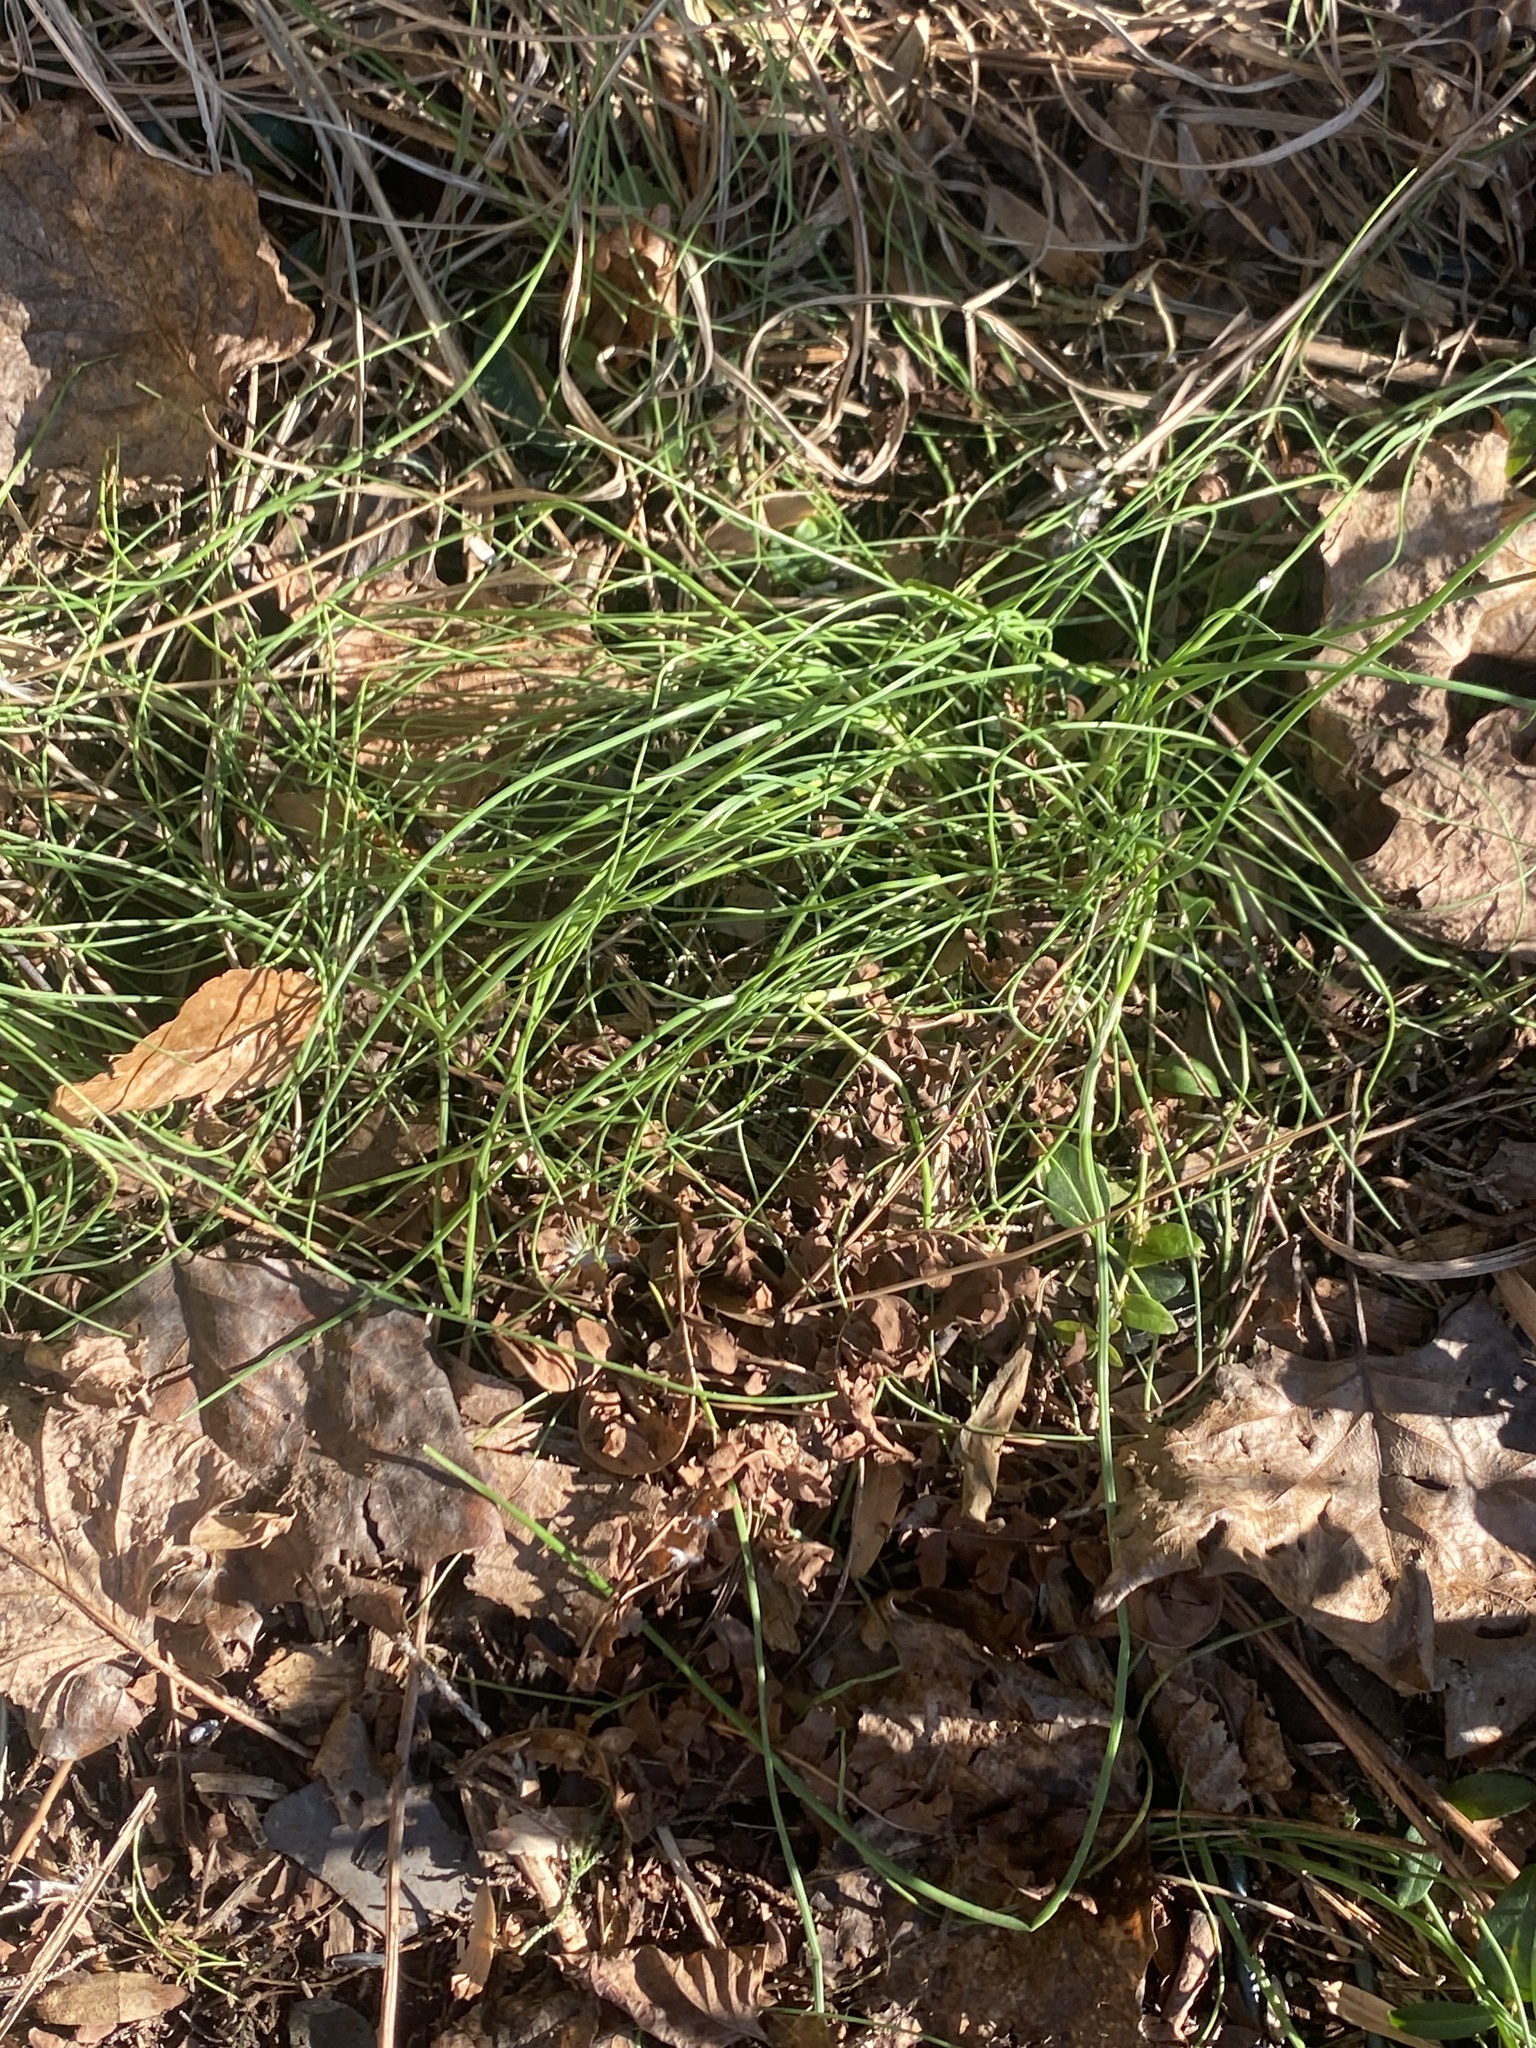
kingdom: Plantae
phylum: Tracheophyta
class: Liliopsida
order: Asparagales
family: Amaryllidaceae
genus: Allium
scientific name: Allium vineale
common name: Crow garlic
